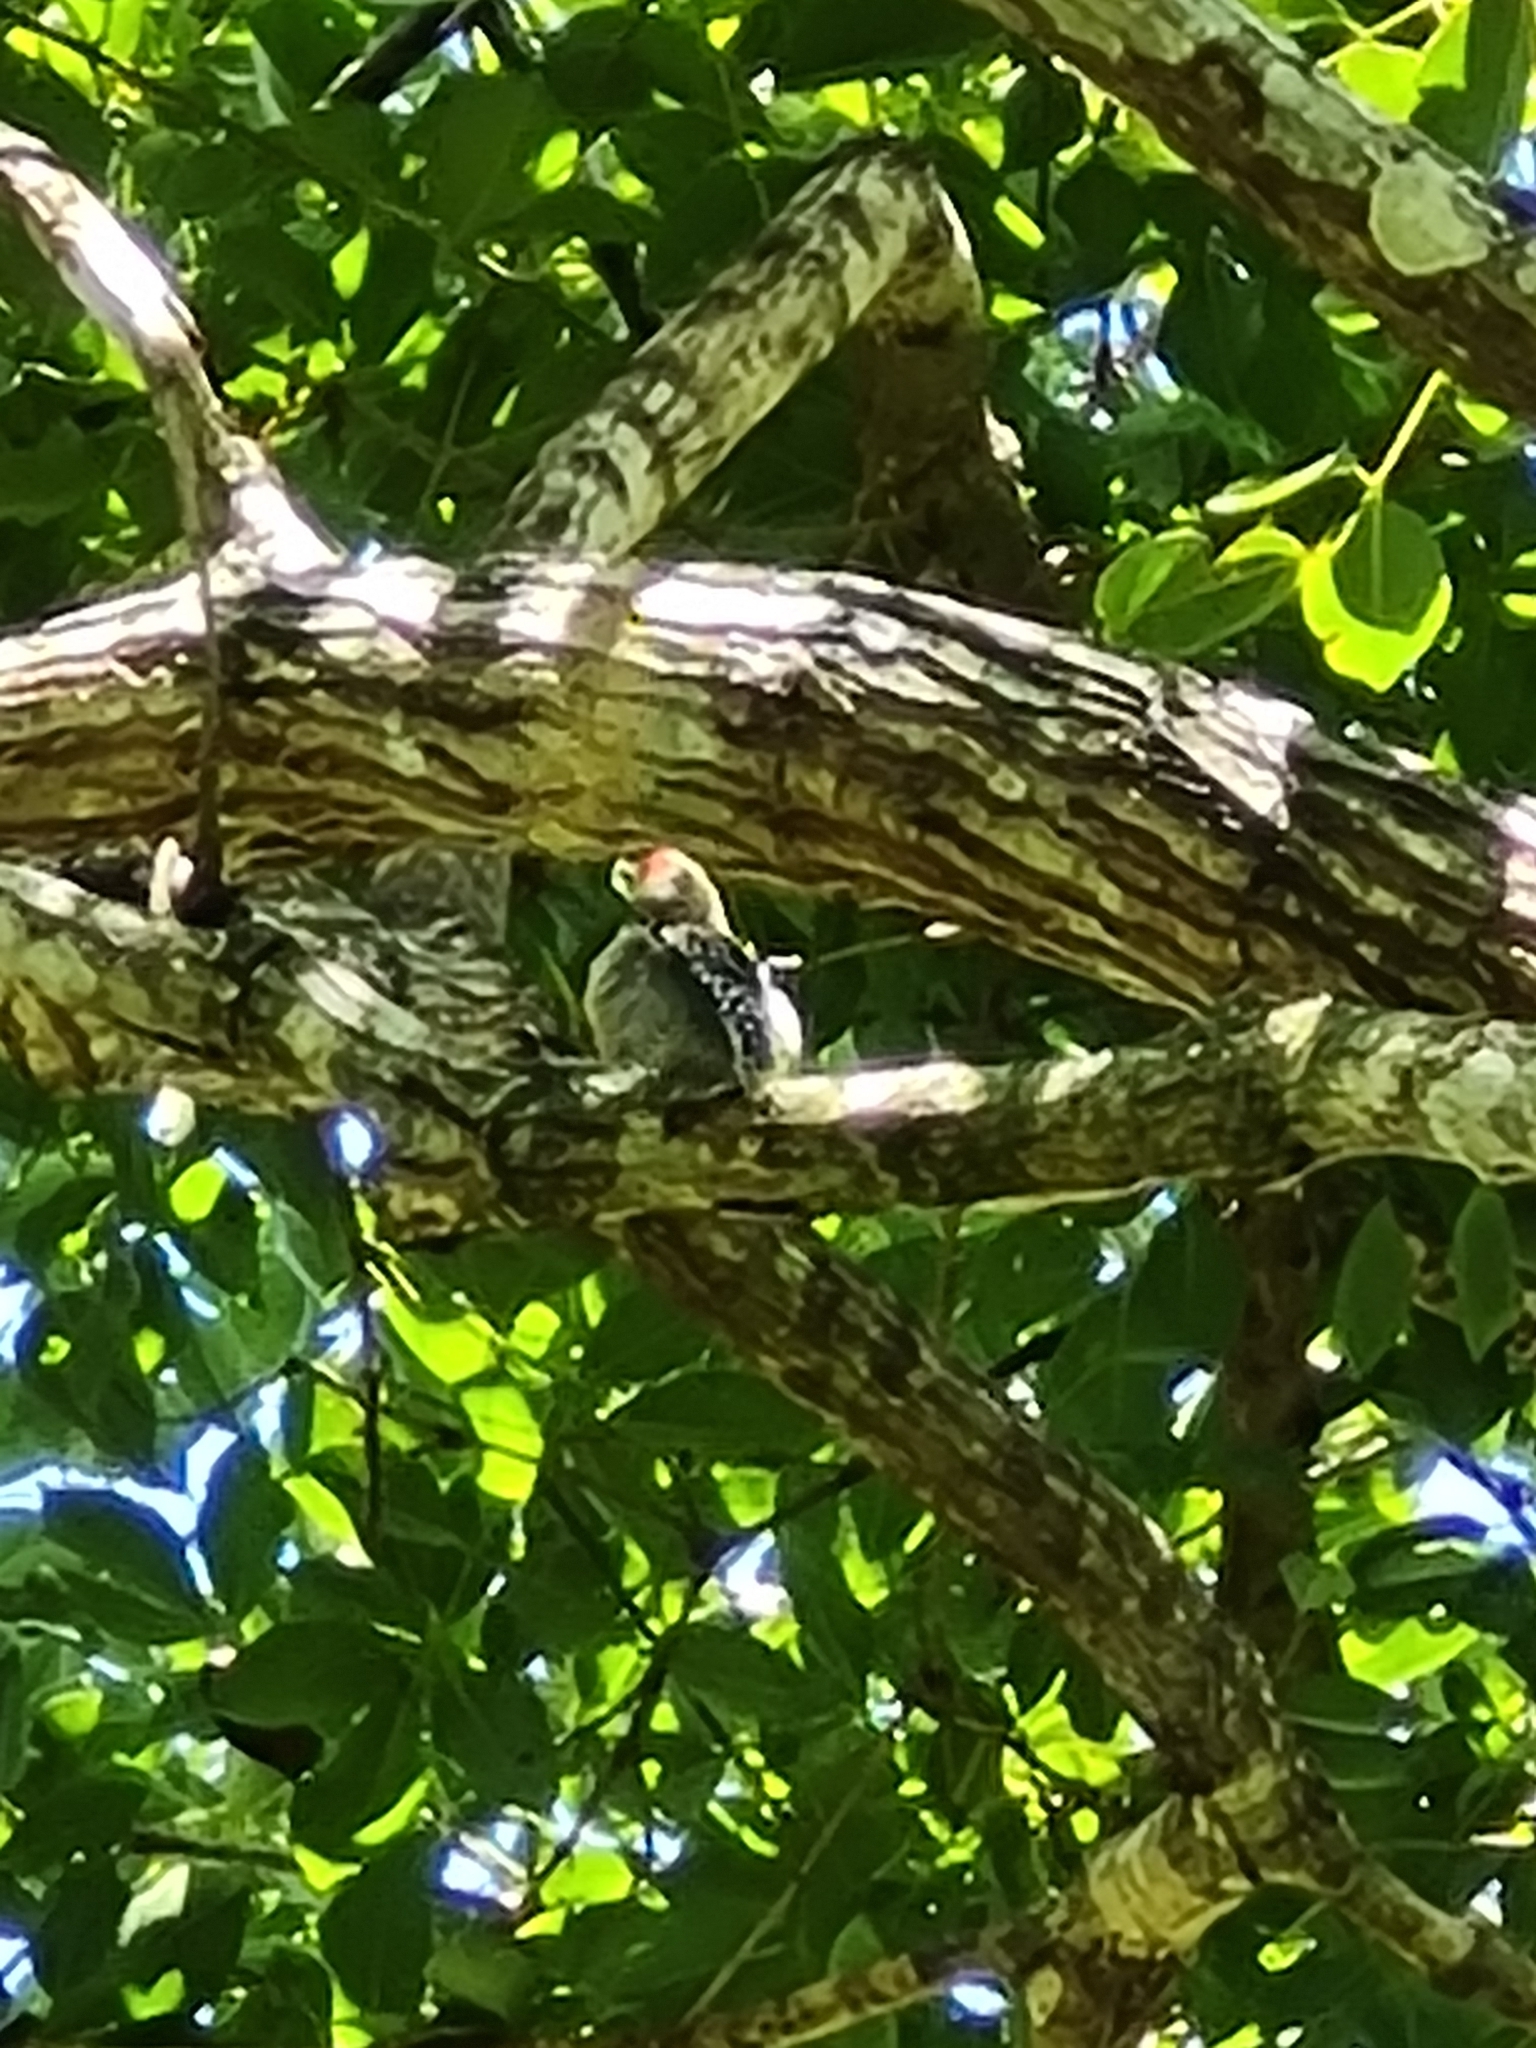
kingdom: Animalia
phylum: Chordata
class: Aves
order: Piciformes
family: Picidae
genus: Melanerpes
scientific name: Melanerpes rubricapillus
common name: Red-crowned woodpecker
